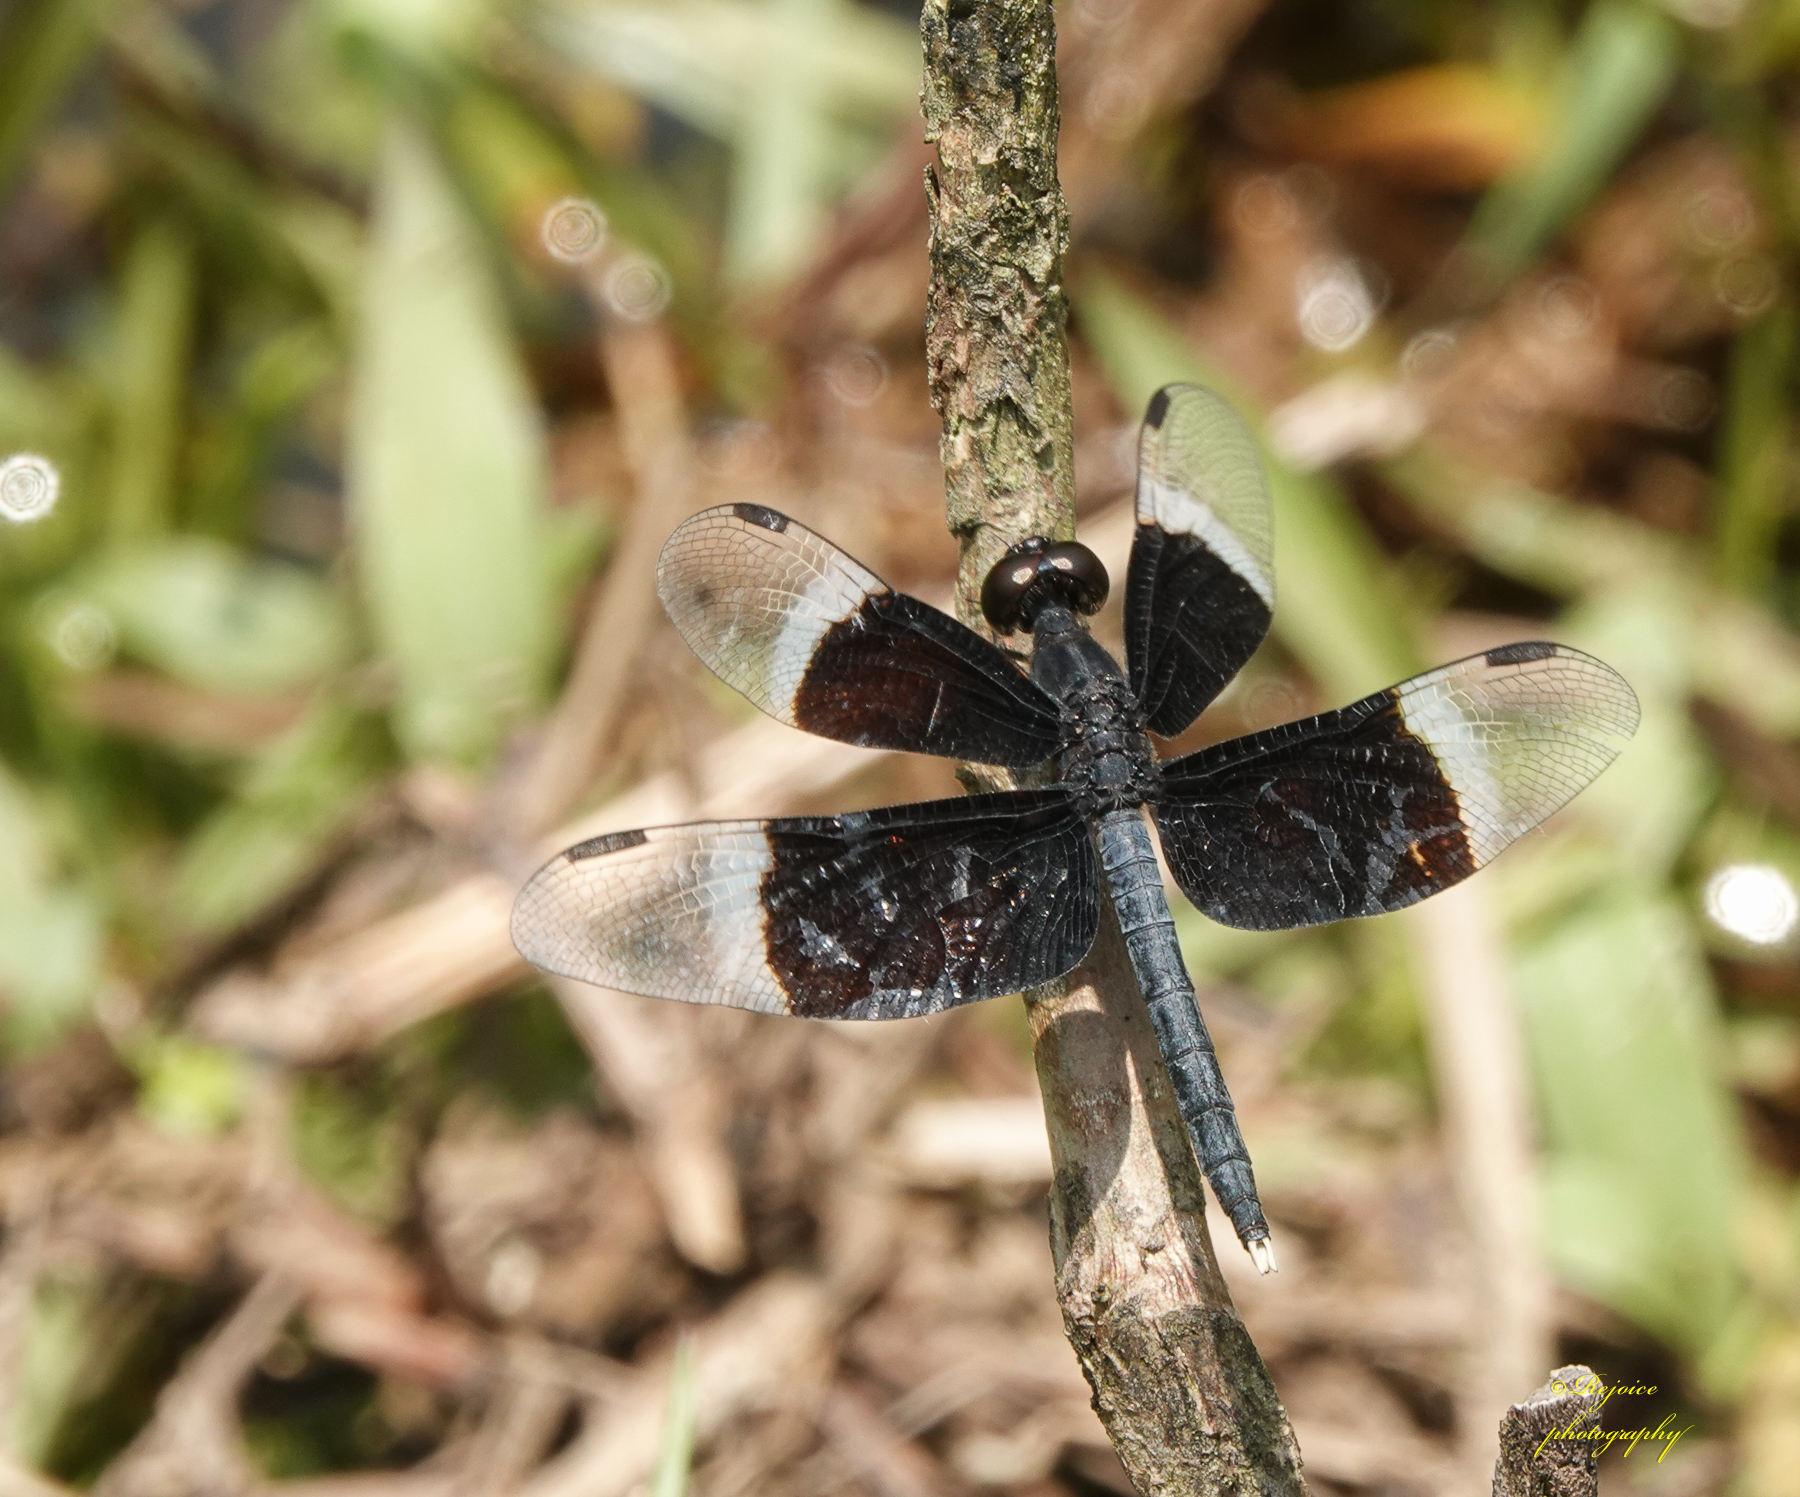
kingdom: Animalia
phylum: Arthropoda
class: Insecta
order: Odonata
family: Libellulidae
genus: Neurothemis
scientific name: Neurothemis tullia
